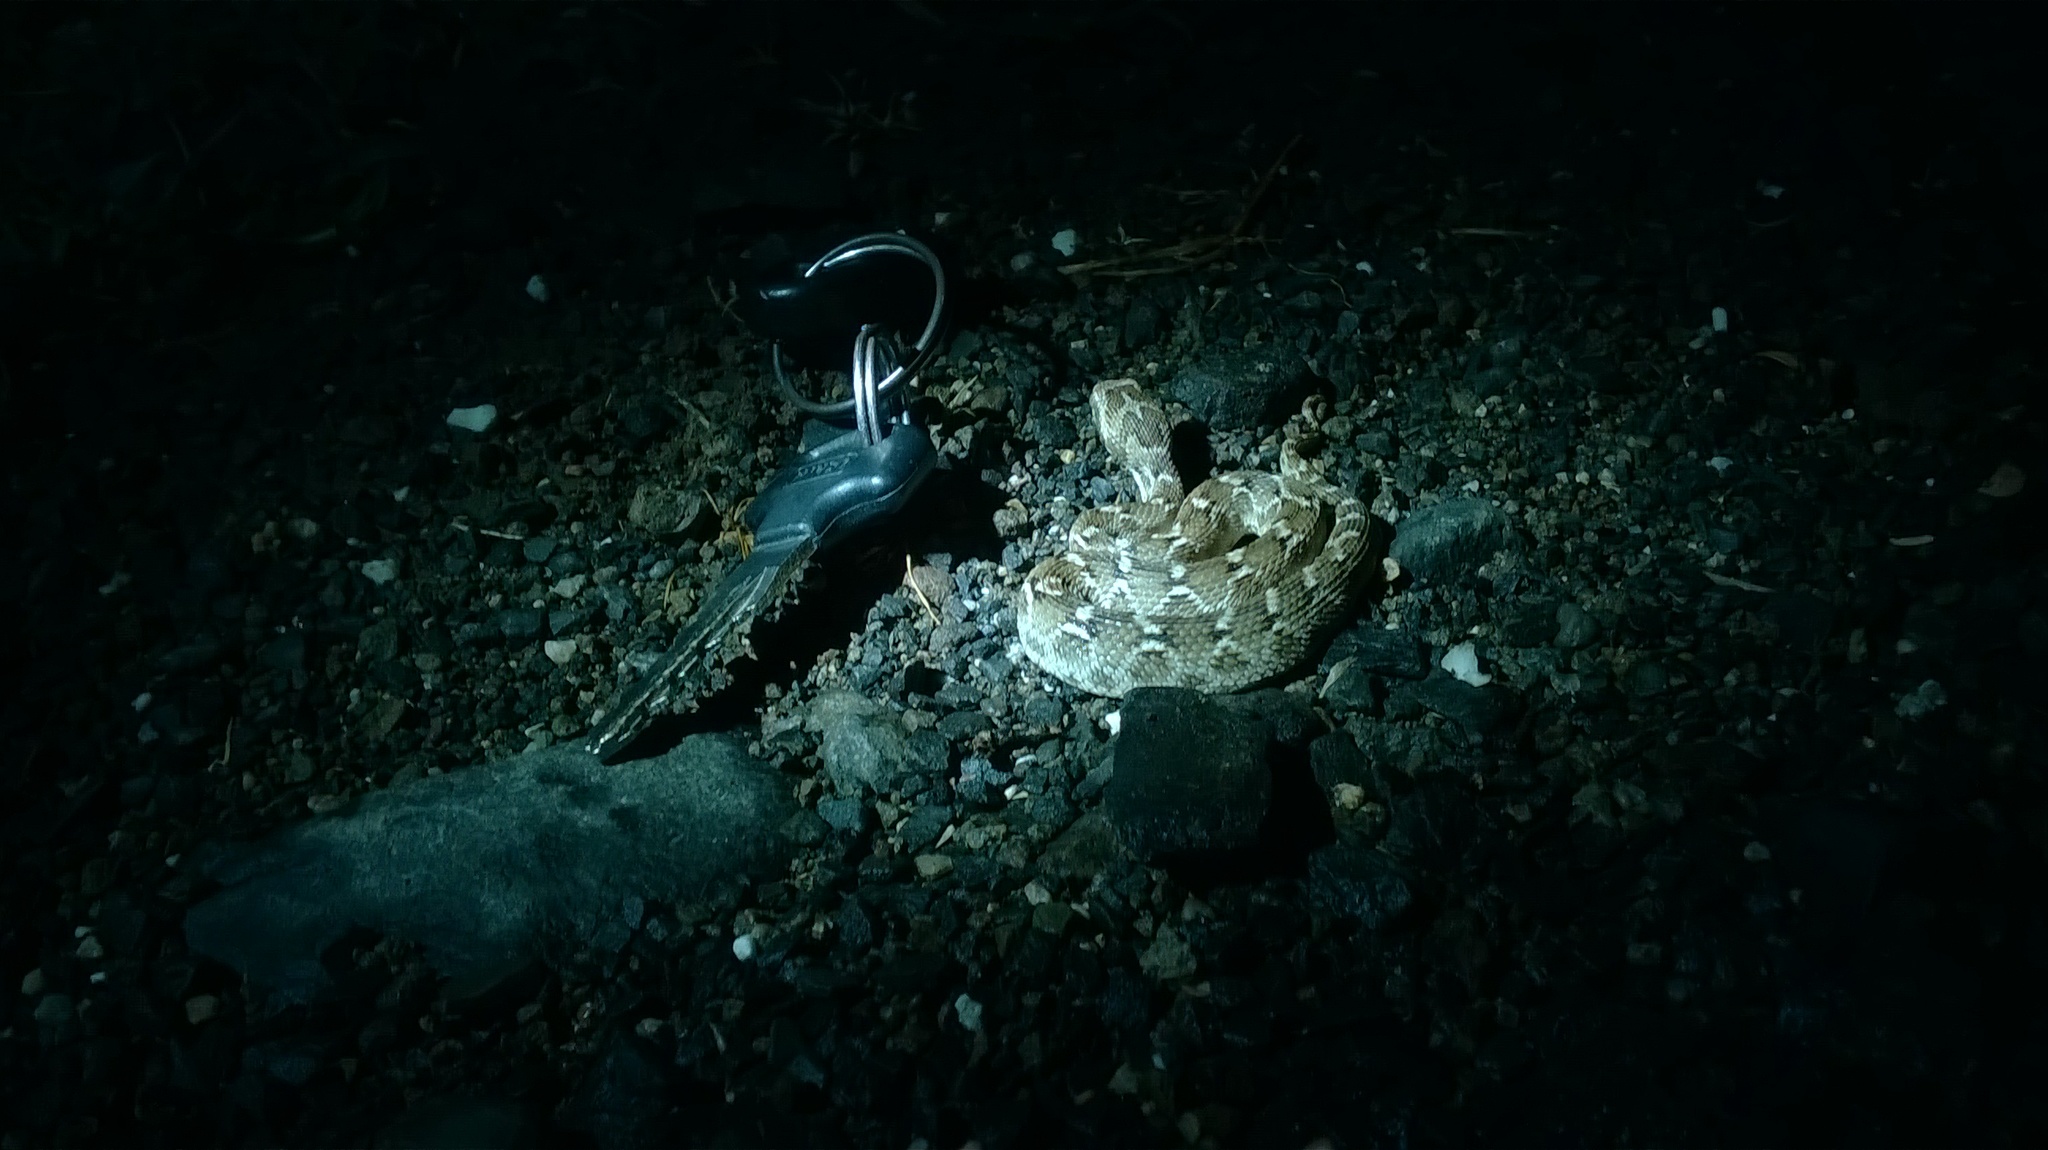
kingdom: Animalia
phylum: Chordata
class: Squamata
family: Viperidae
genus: Echis
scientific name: Echis carinatus
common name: Saw-scaled viper
